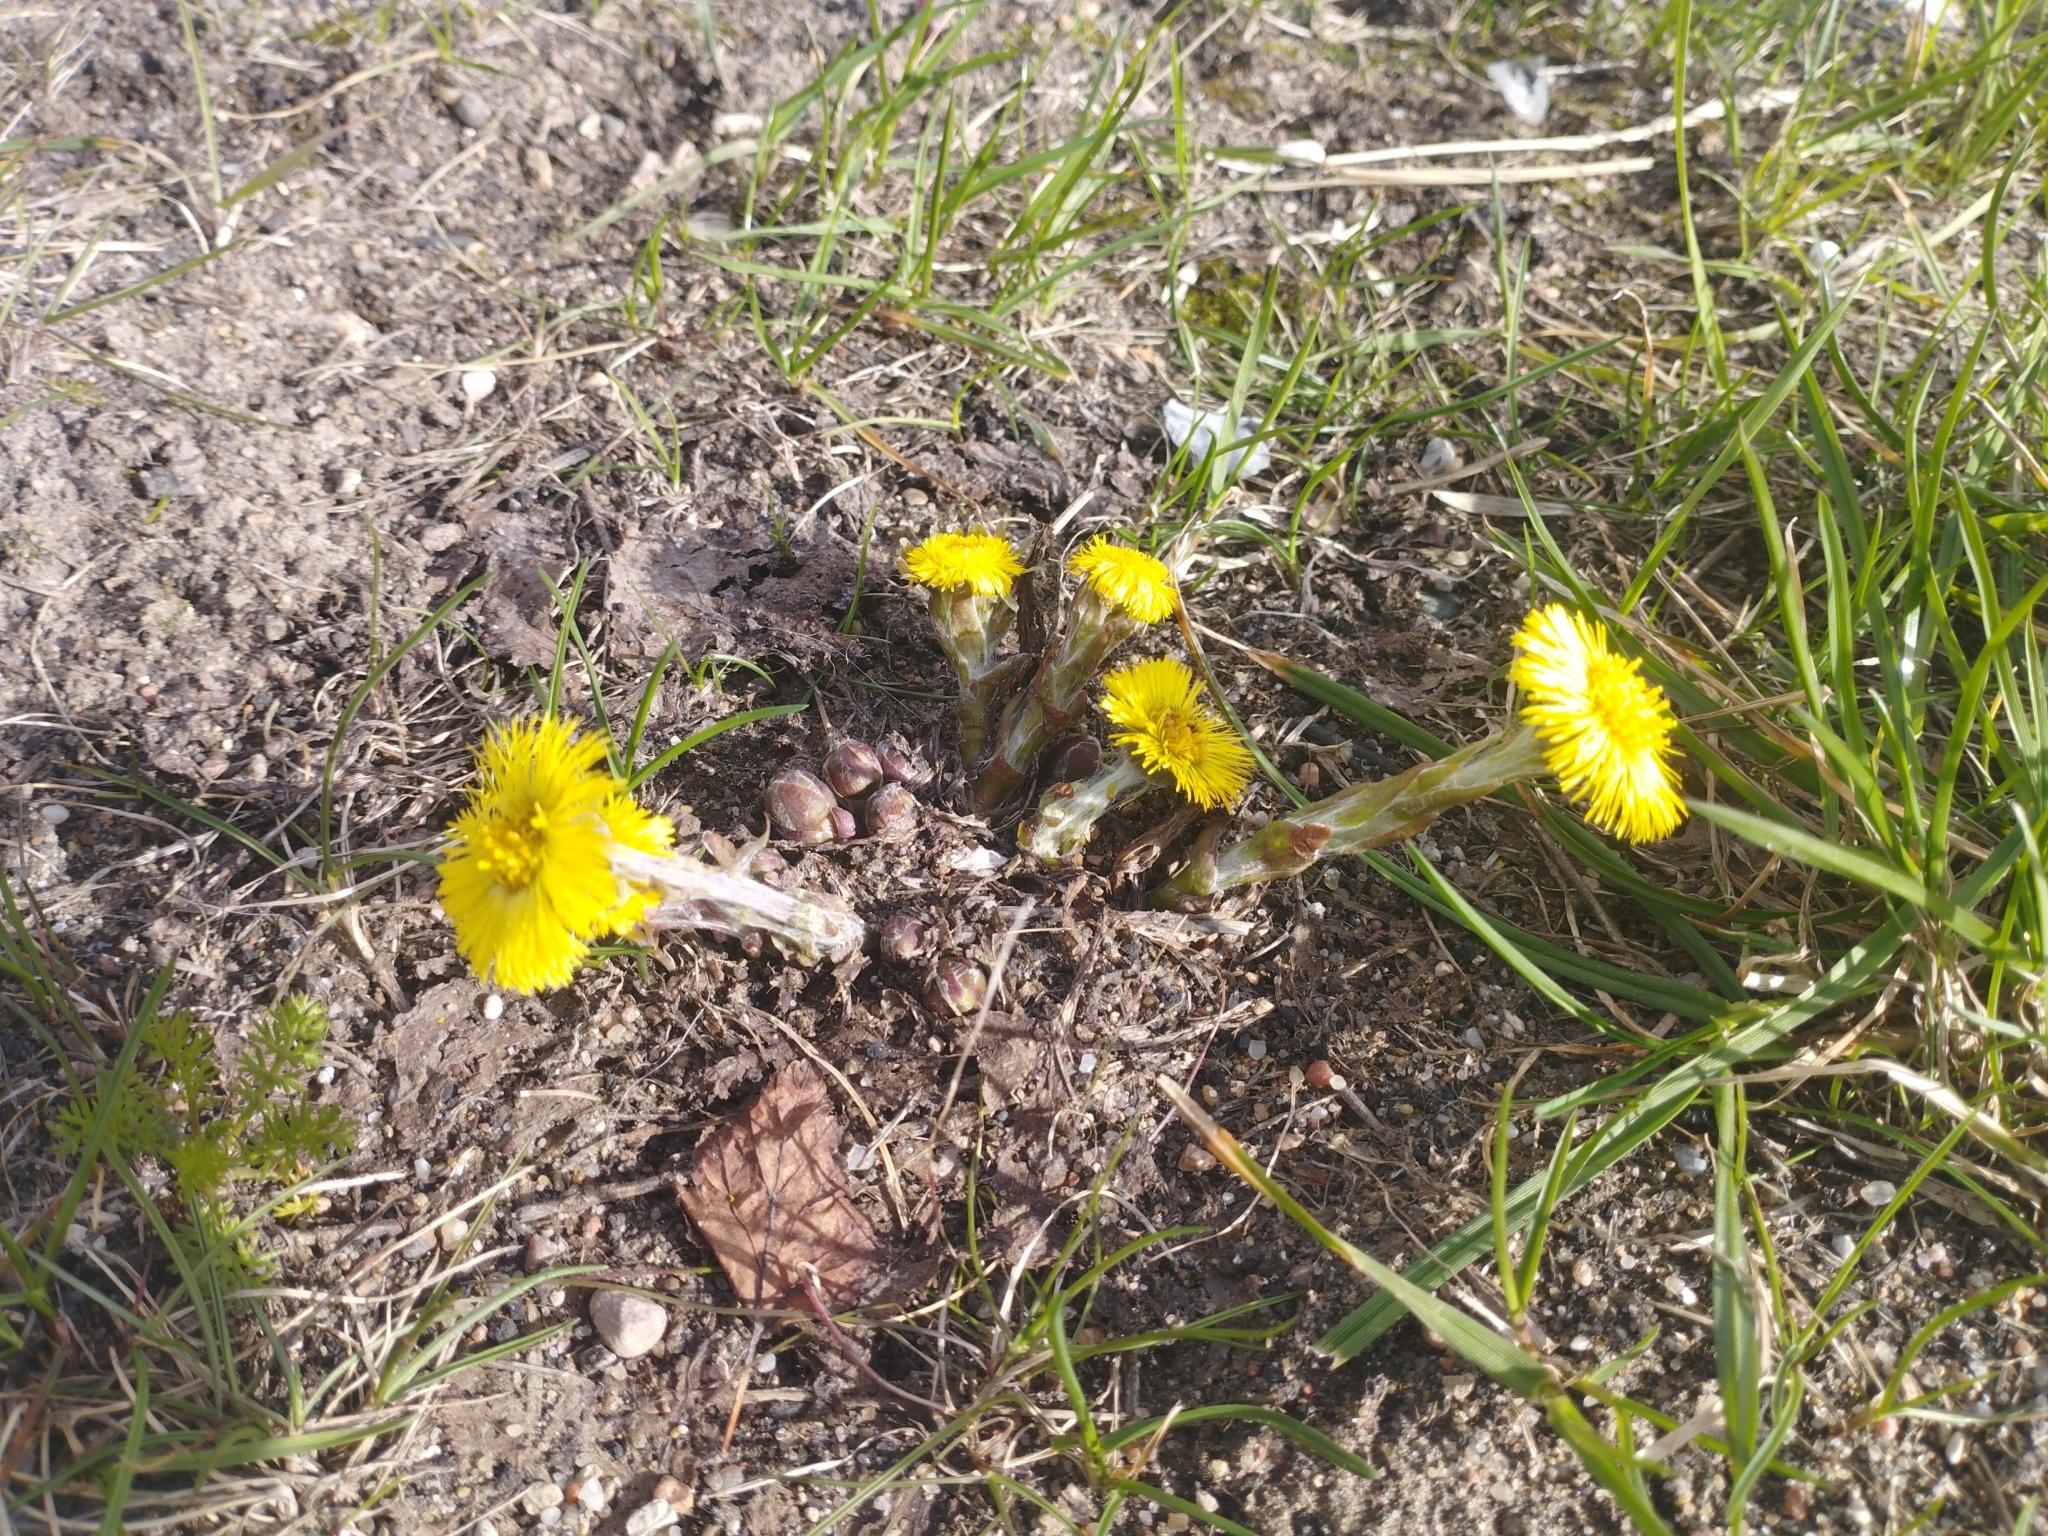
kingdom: Plantae
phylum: Tracheophyta
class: Magnoliopsida
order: Asterales
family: Asteraceae
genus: Tussilago
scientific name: Tussilago farfara
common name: Coltsfoot
